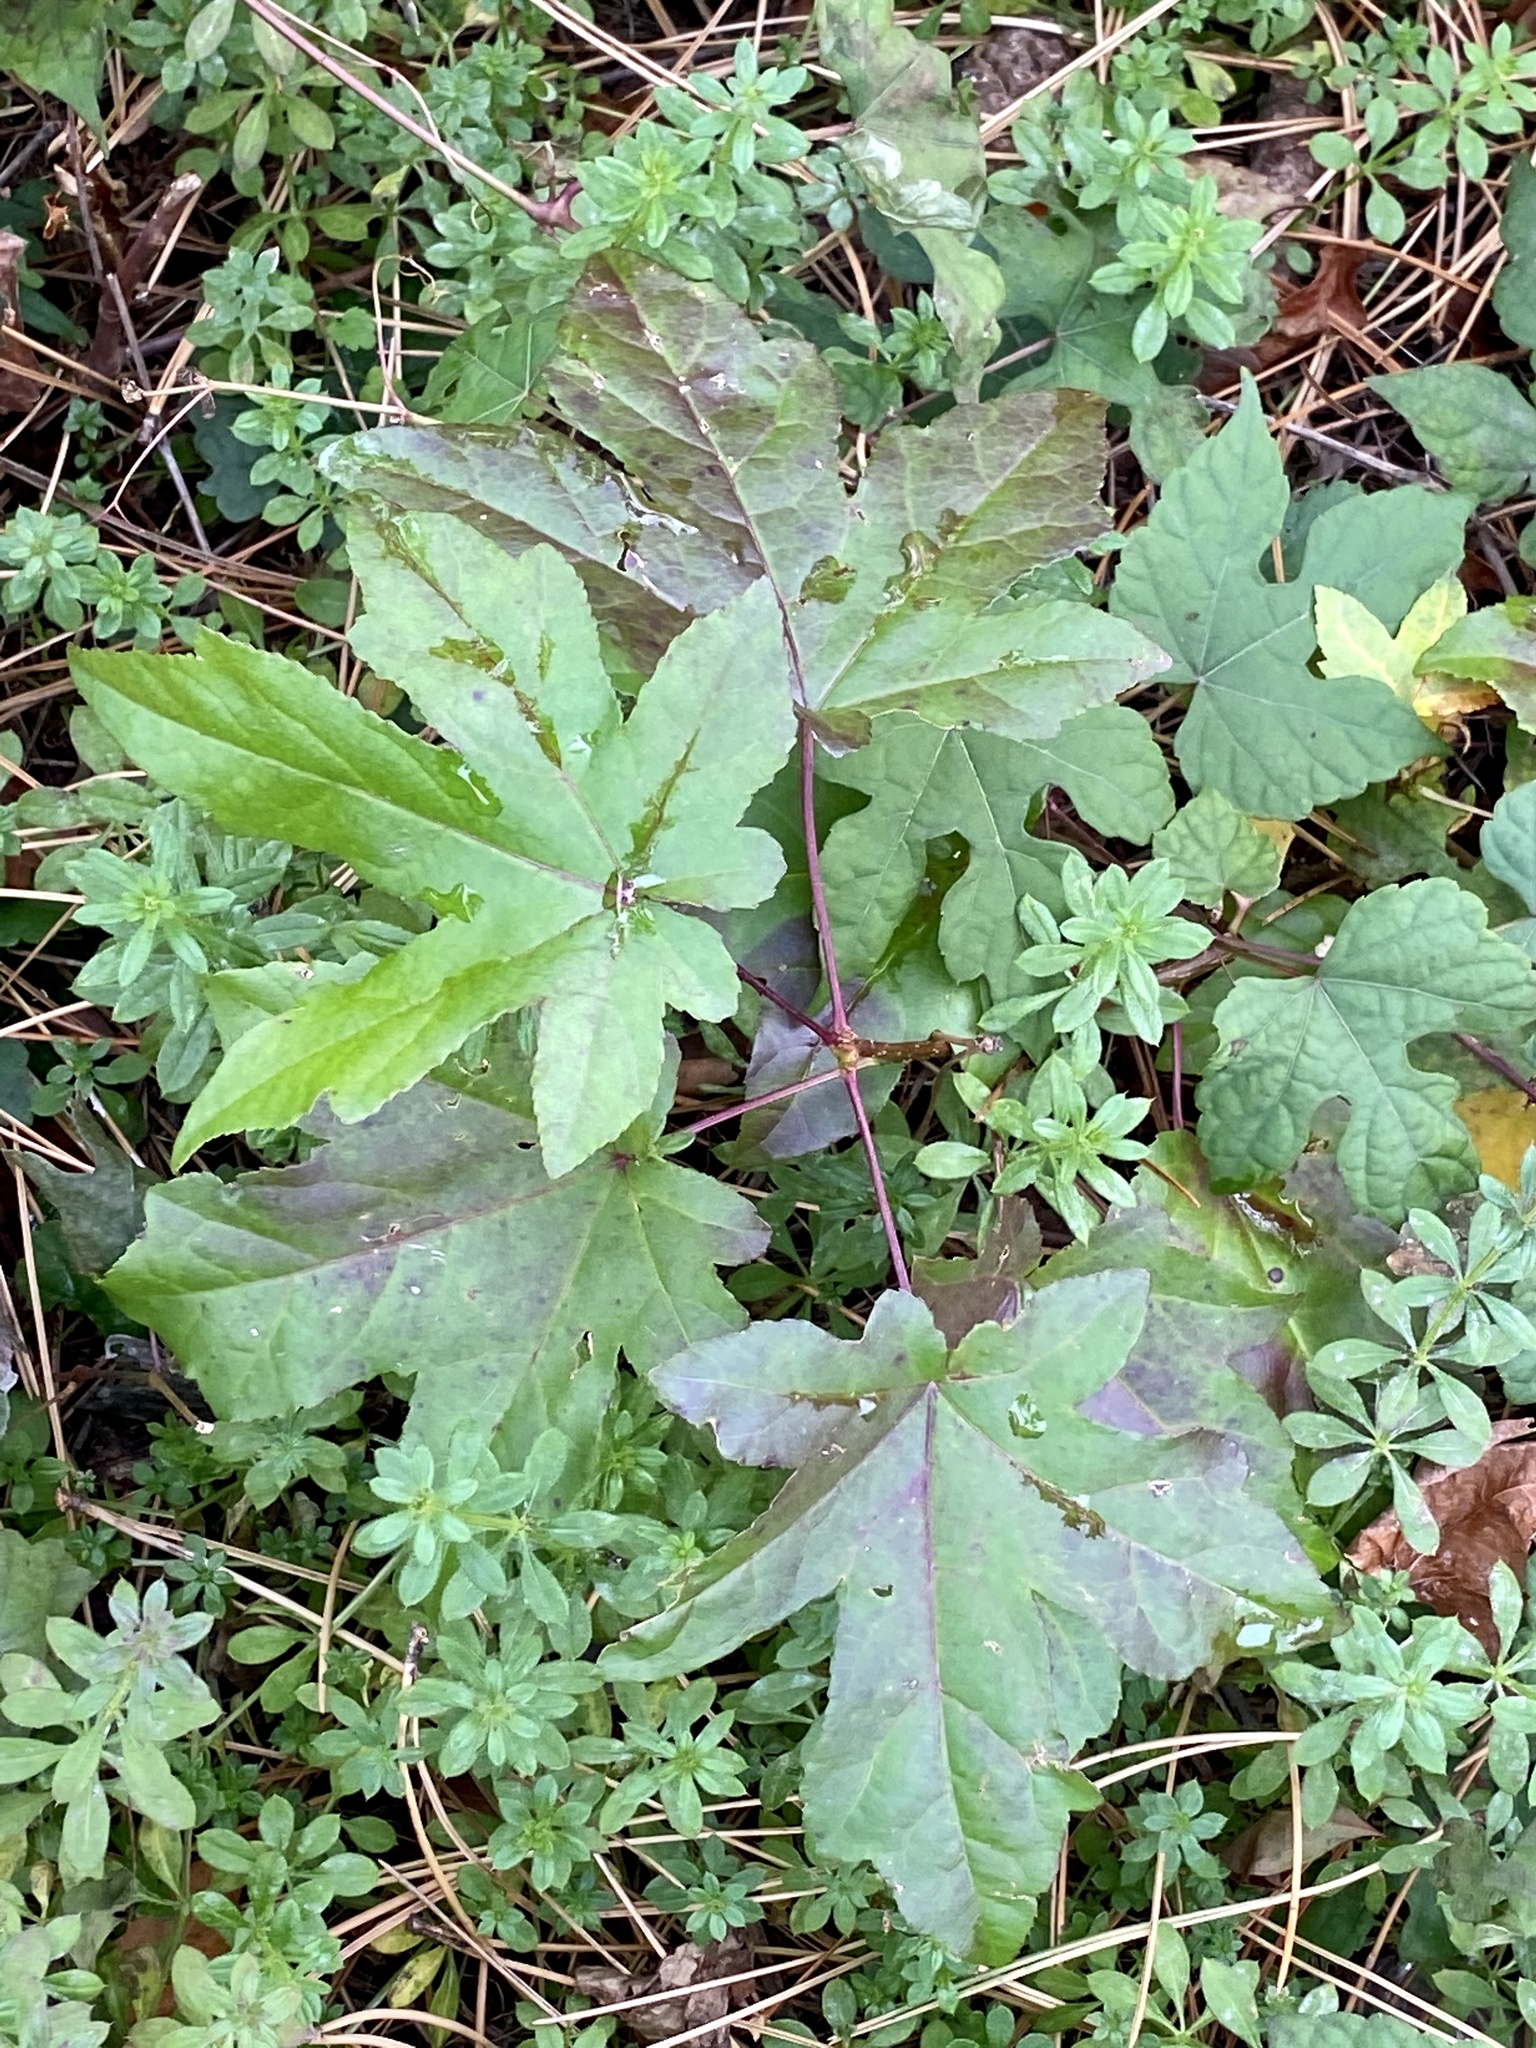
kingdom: Plantae
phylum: Tracheophyta
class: Magnoliopsida
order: Saxifragales
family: Altingiaceae
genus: Liquidambar
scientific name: Liquidambar styraciflua
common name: Sweet gum
